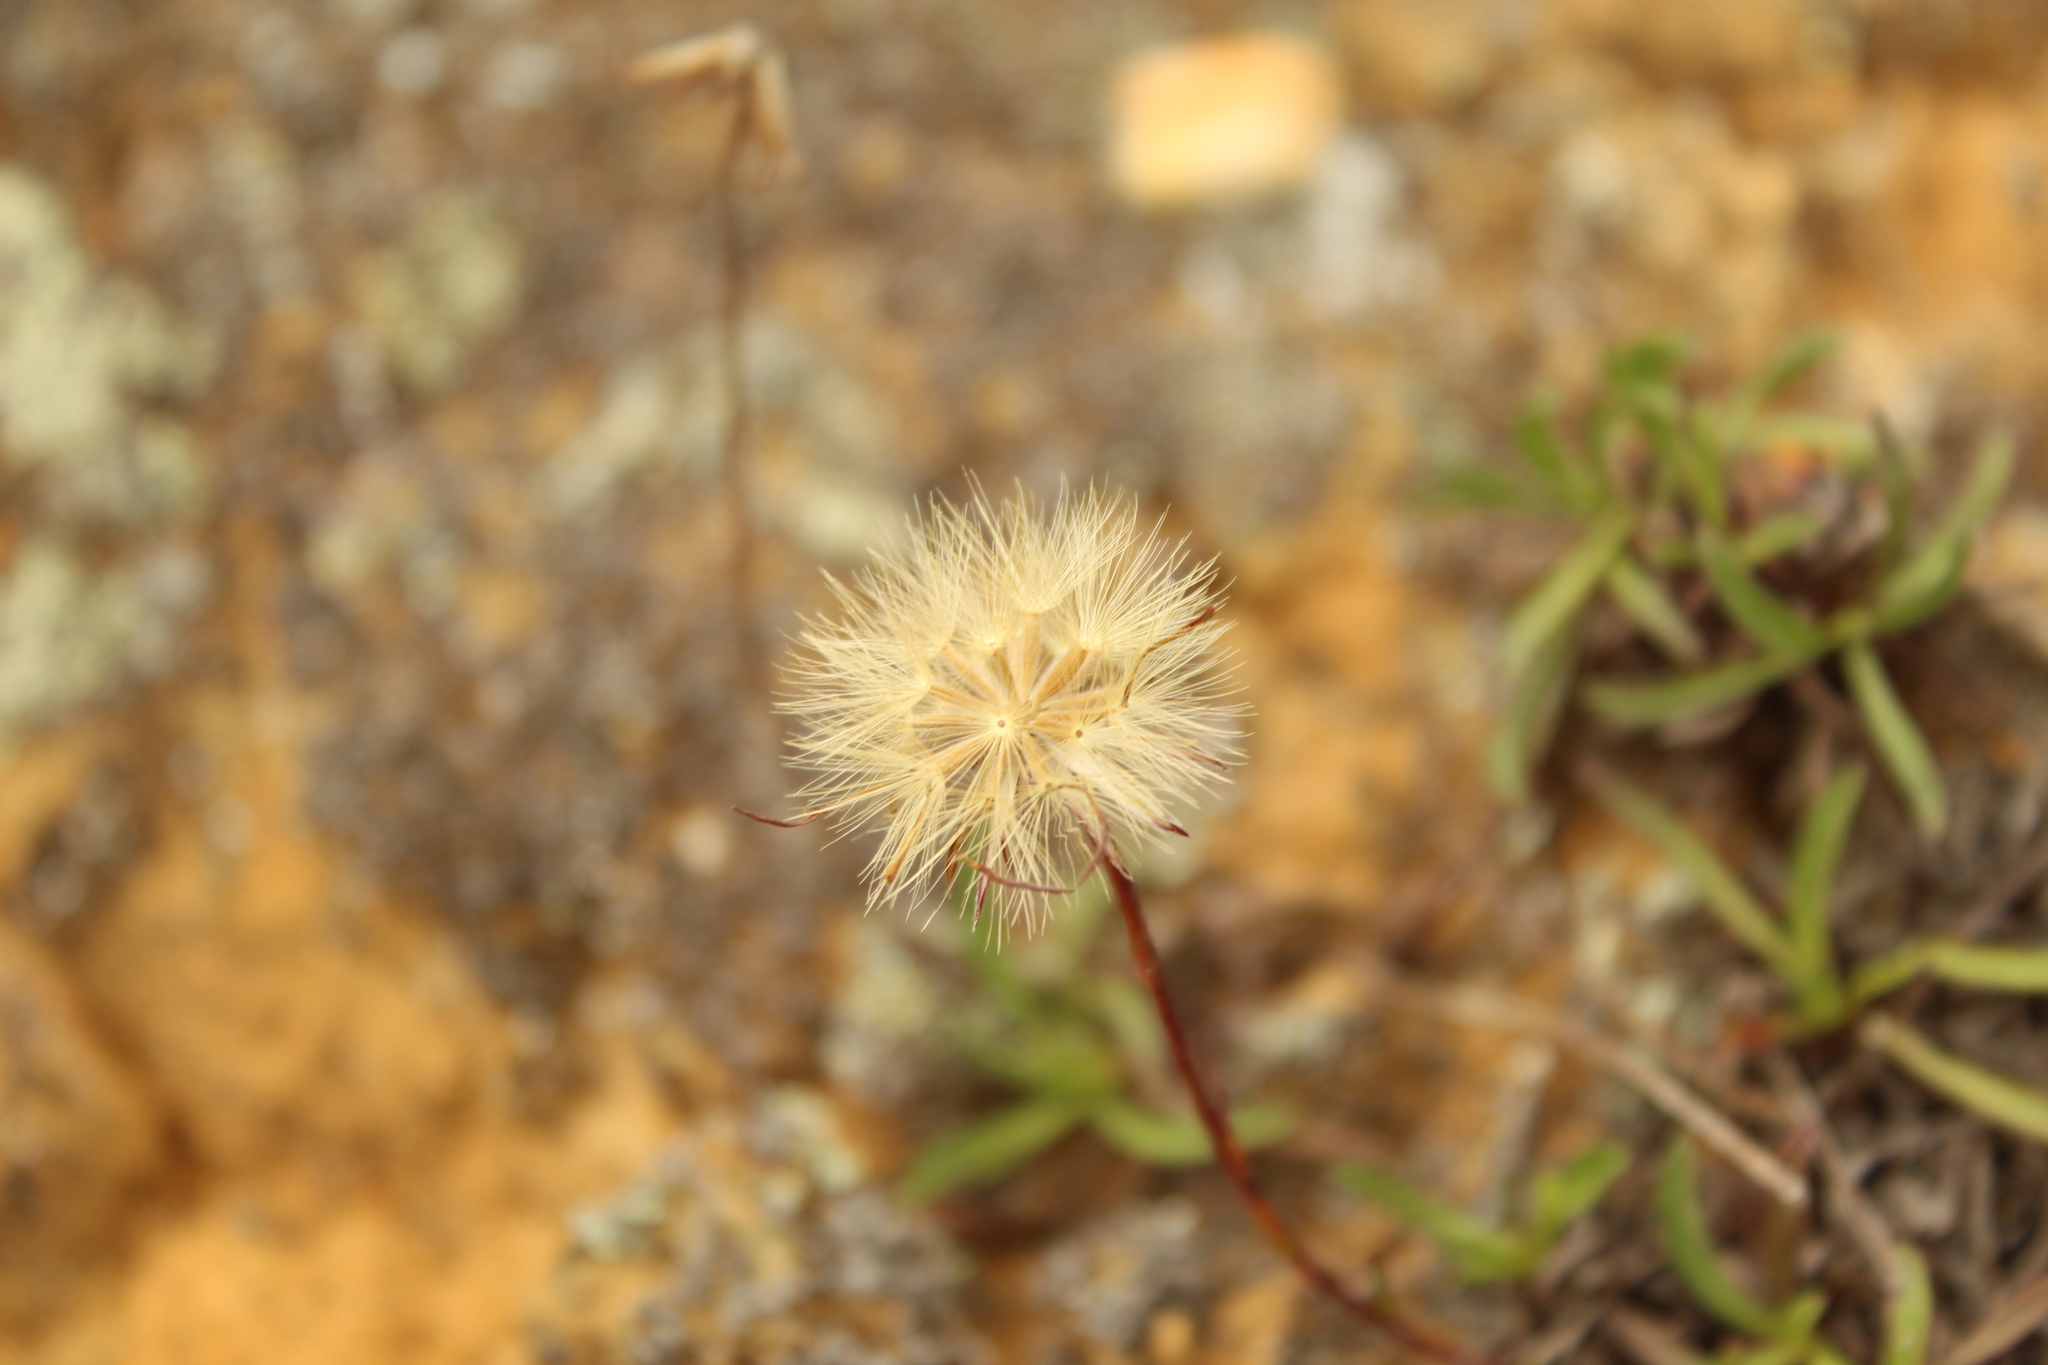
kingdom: Plantae
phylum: Tracheophyta
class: Magnoliopsida
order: Asterales
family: Asteraceae
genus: Noticastrum
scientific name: Noticastrum marginatum
